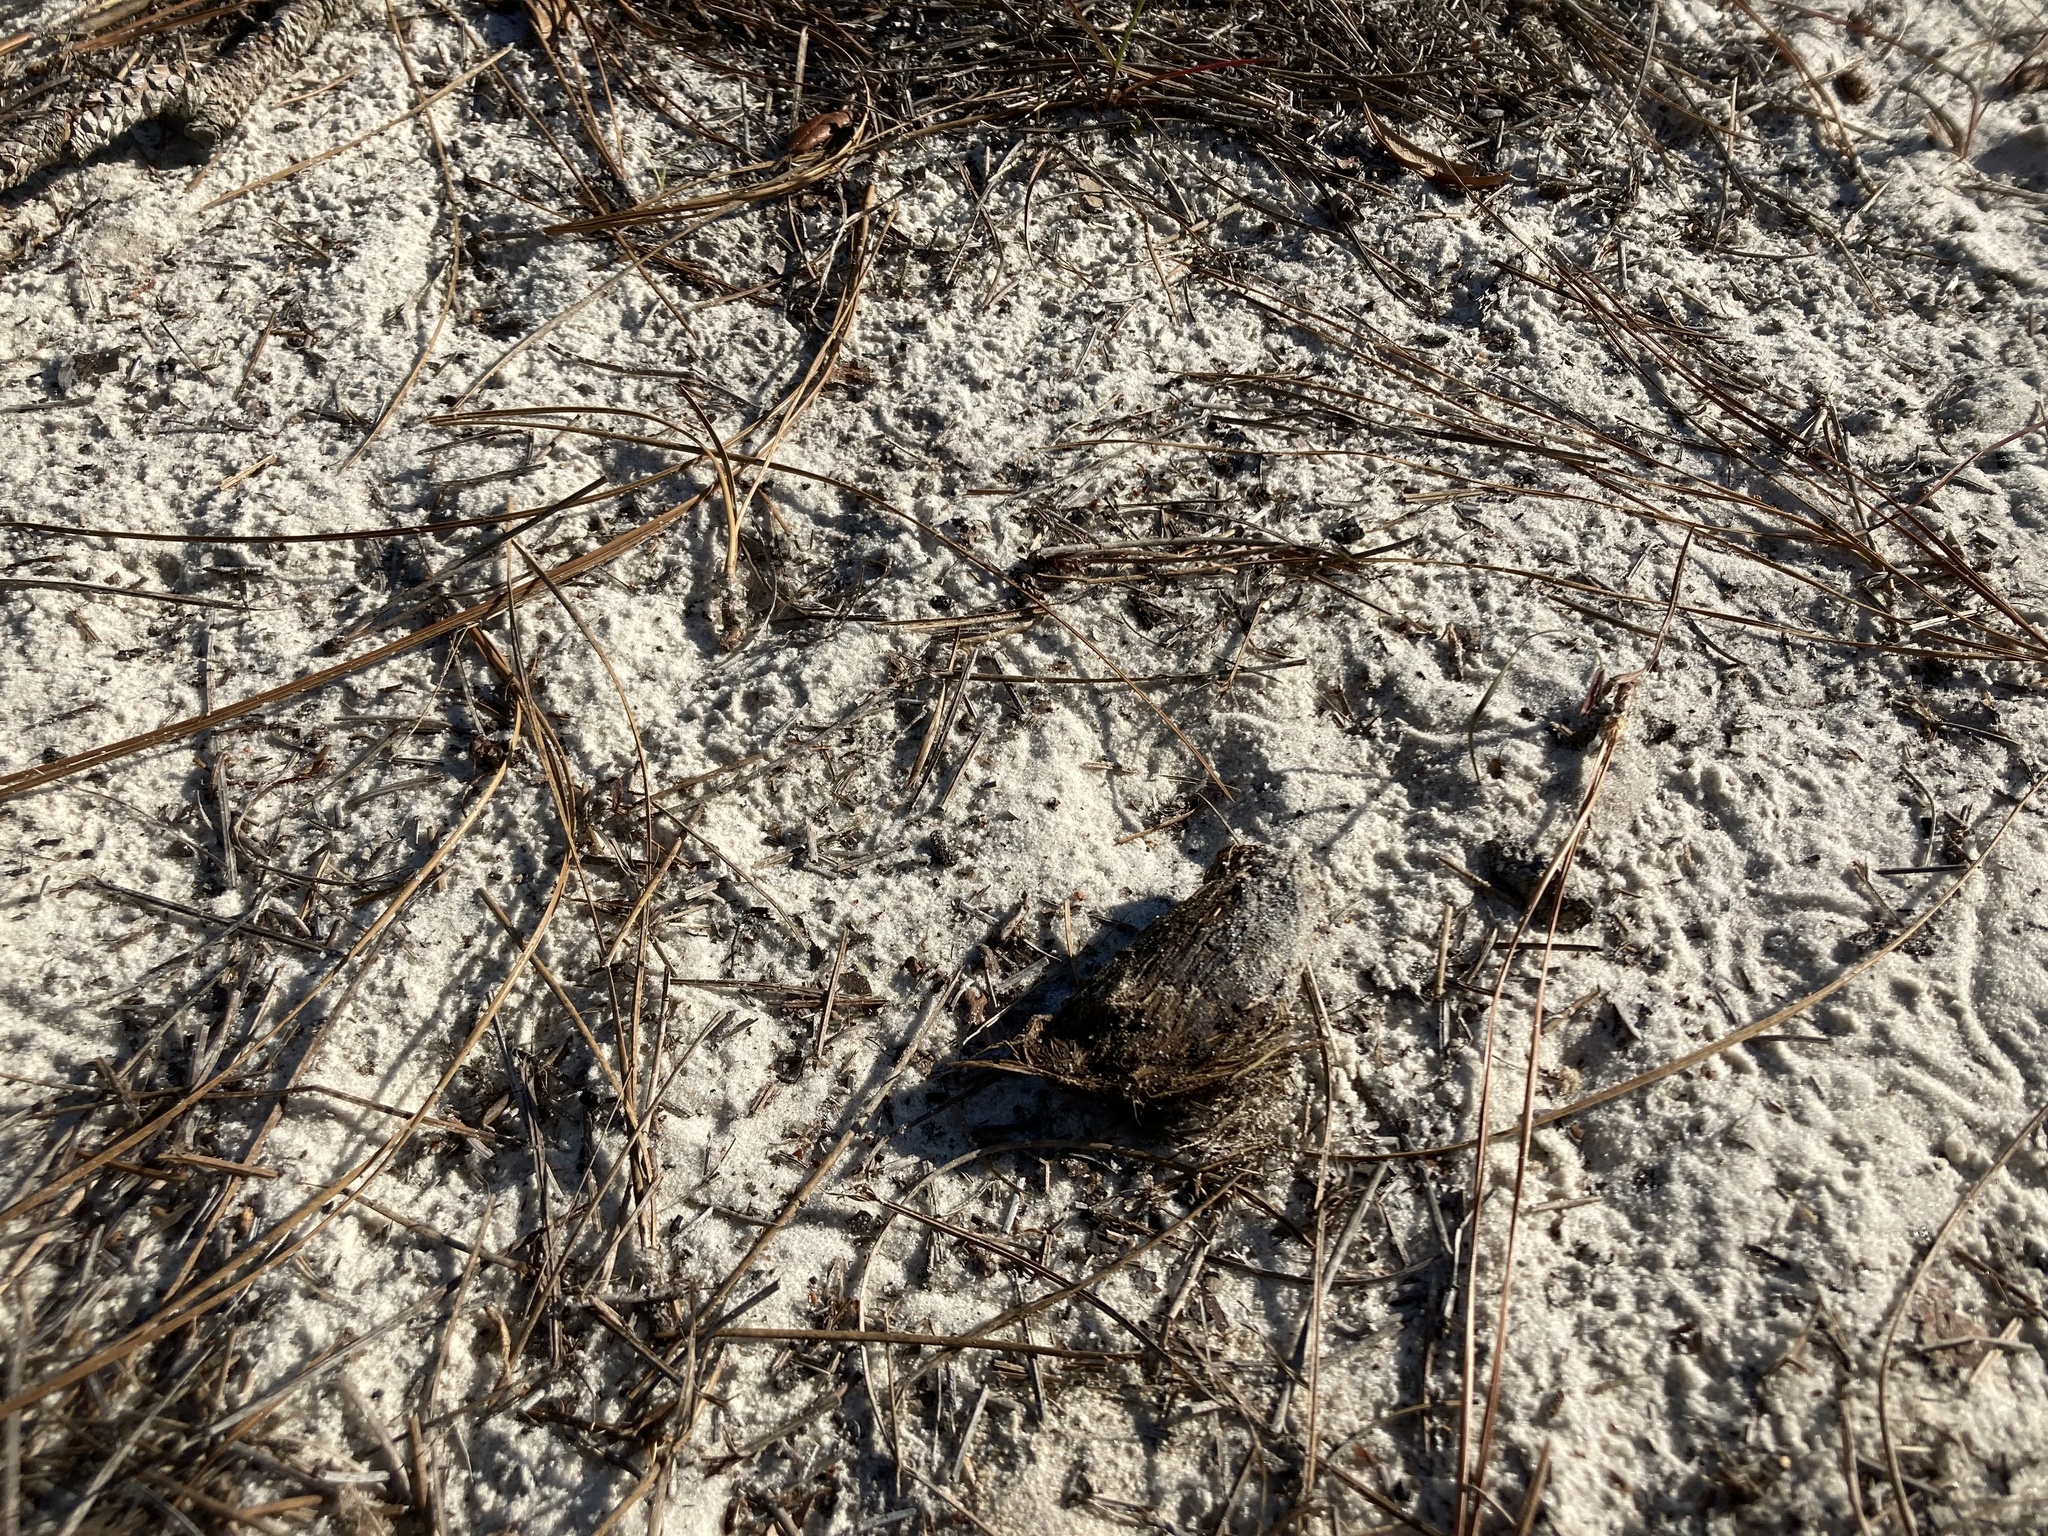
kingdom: Animalia
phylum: Chordata
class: Testudines
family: Testudinidae
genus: Gopherus
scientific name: Gopherus polyphemus
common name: Florida gopher tortoise
